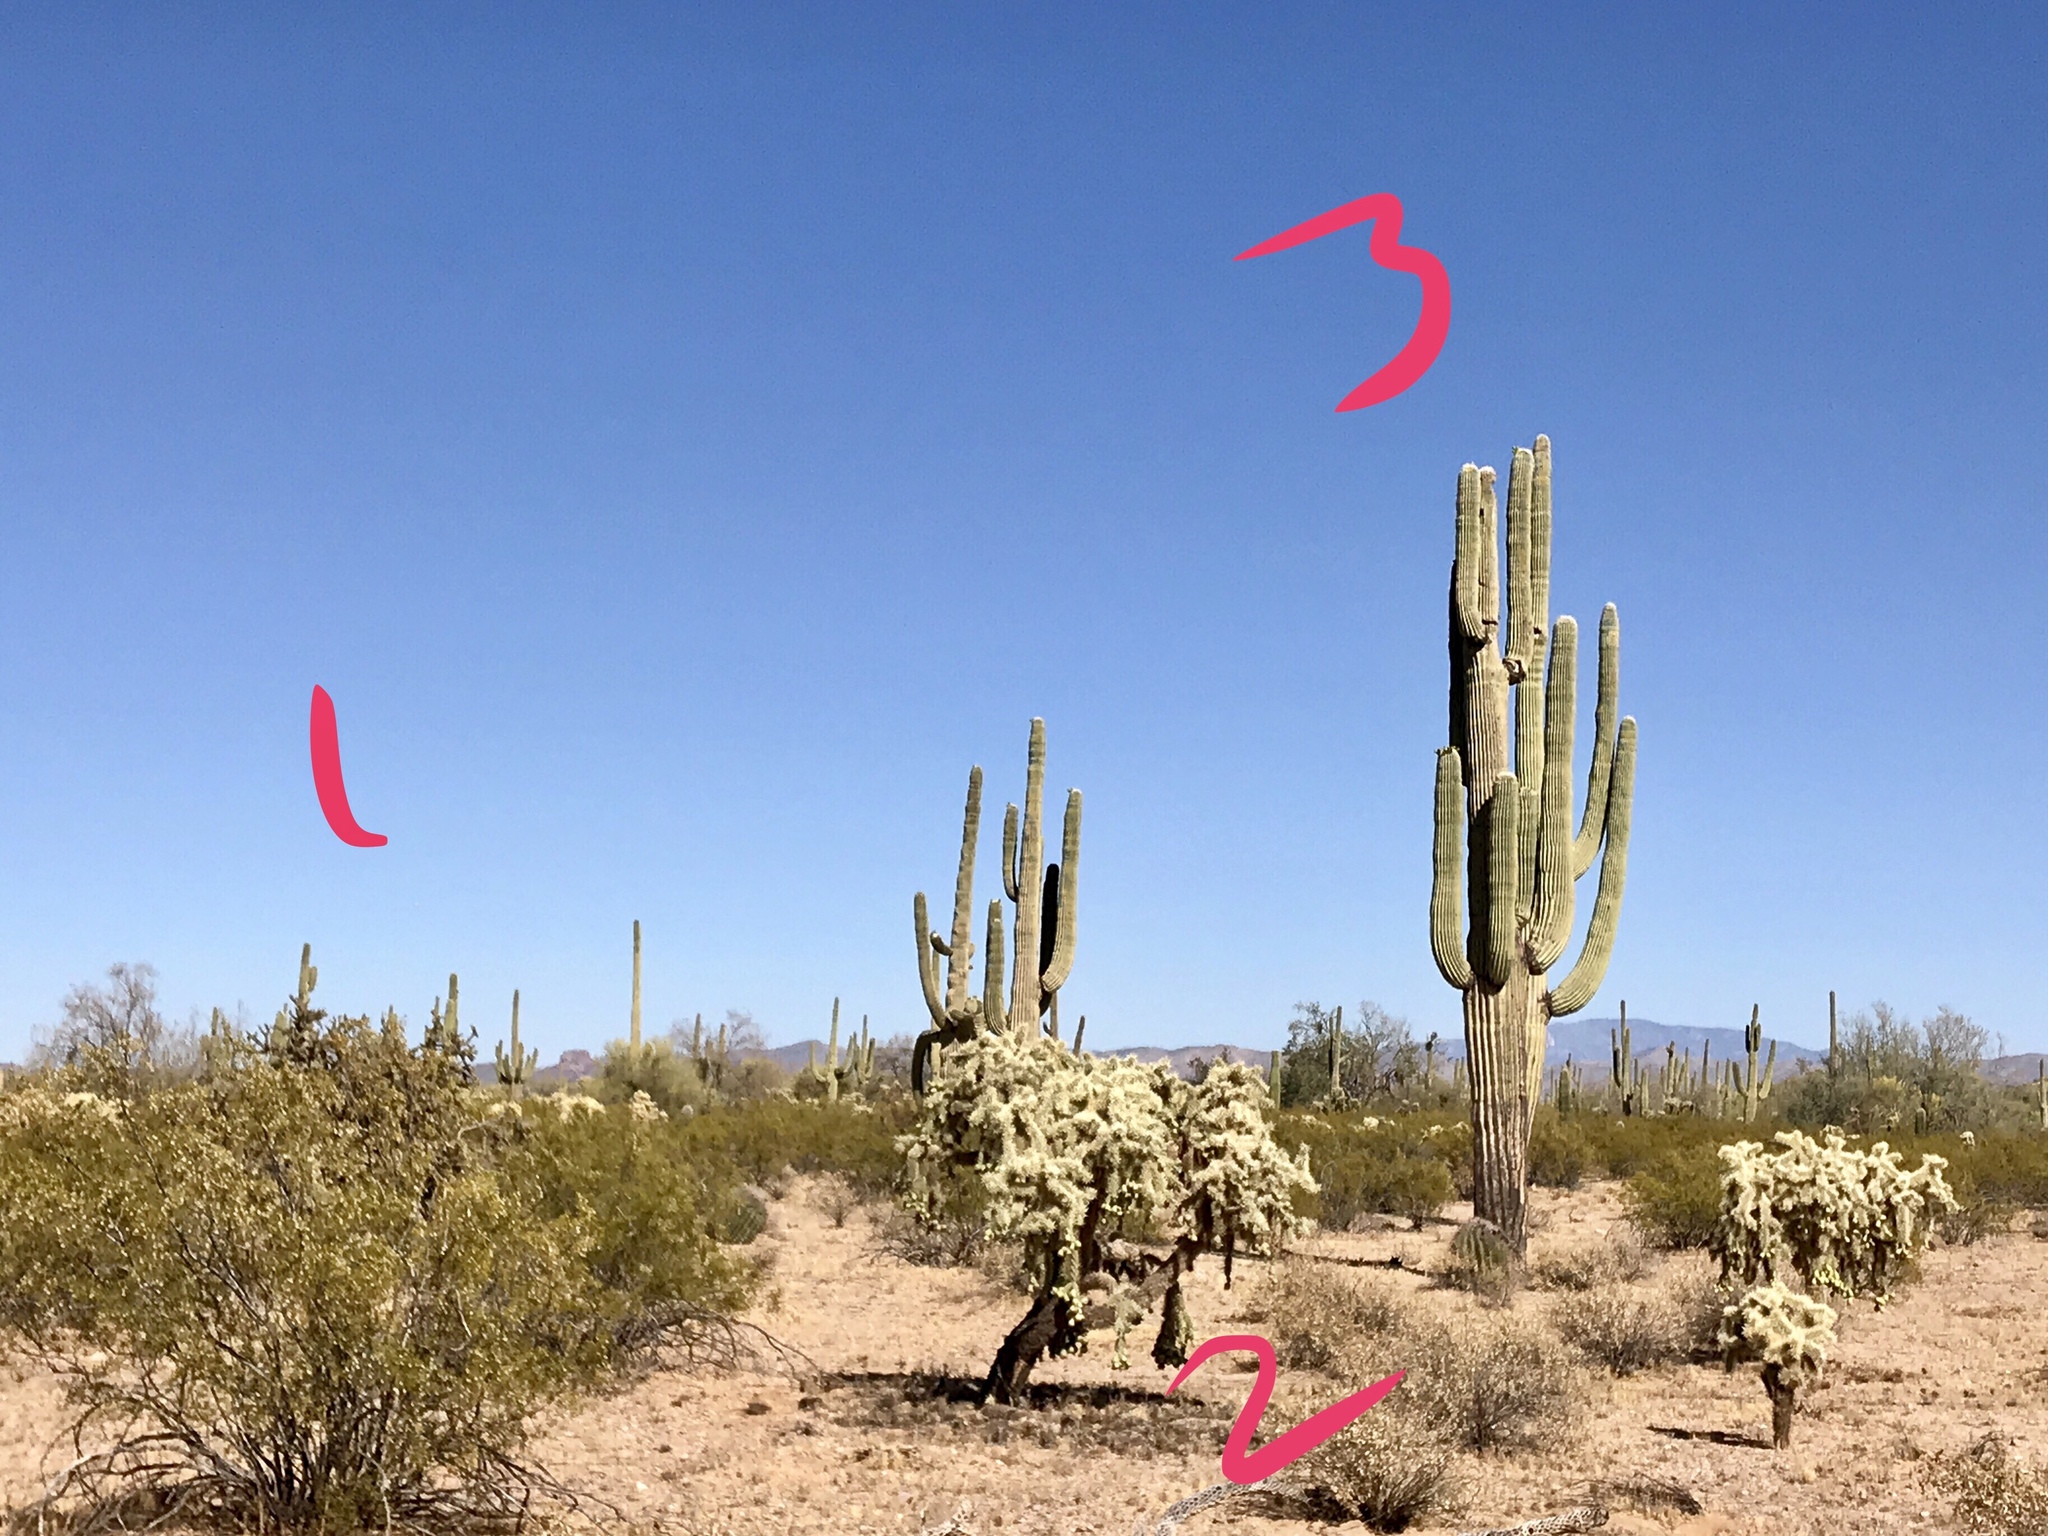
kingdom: Plantae
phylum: Tracheophyta
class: Magnoliopsida
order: Caryophyllales
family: Cactaceae
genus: Carnegiea
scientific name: Carnegiea gigantea
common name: Saguaro
